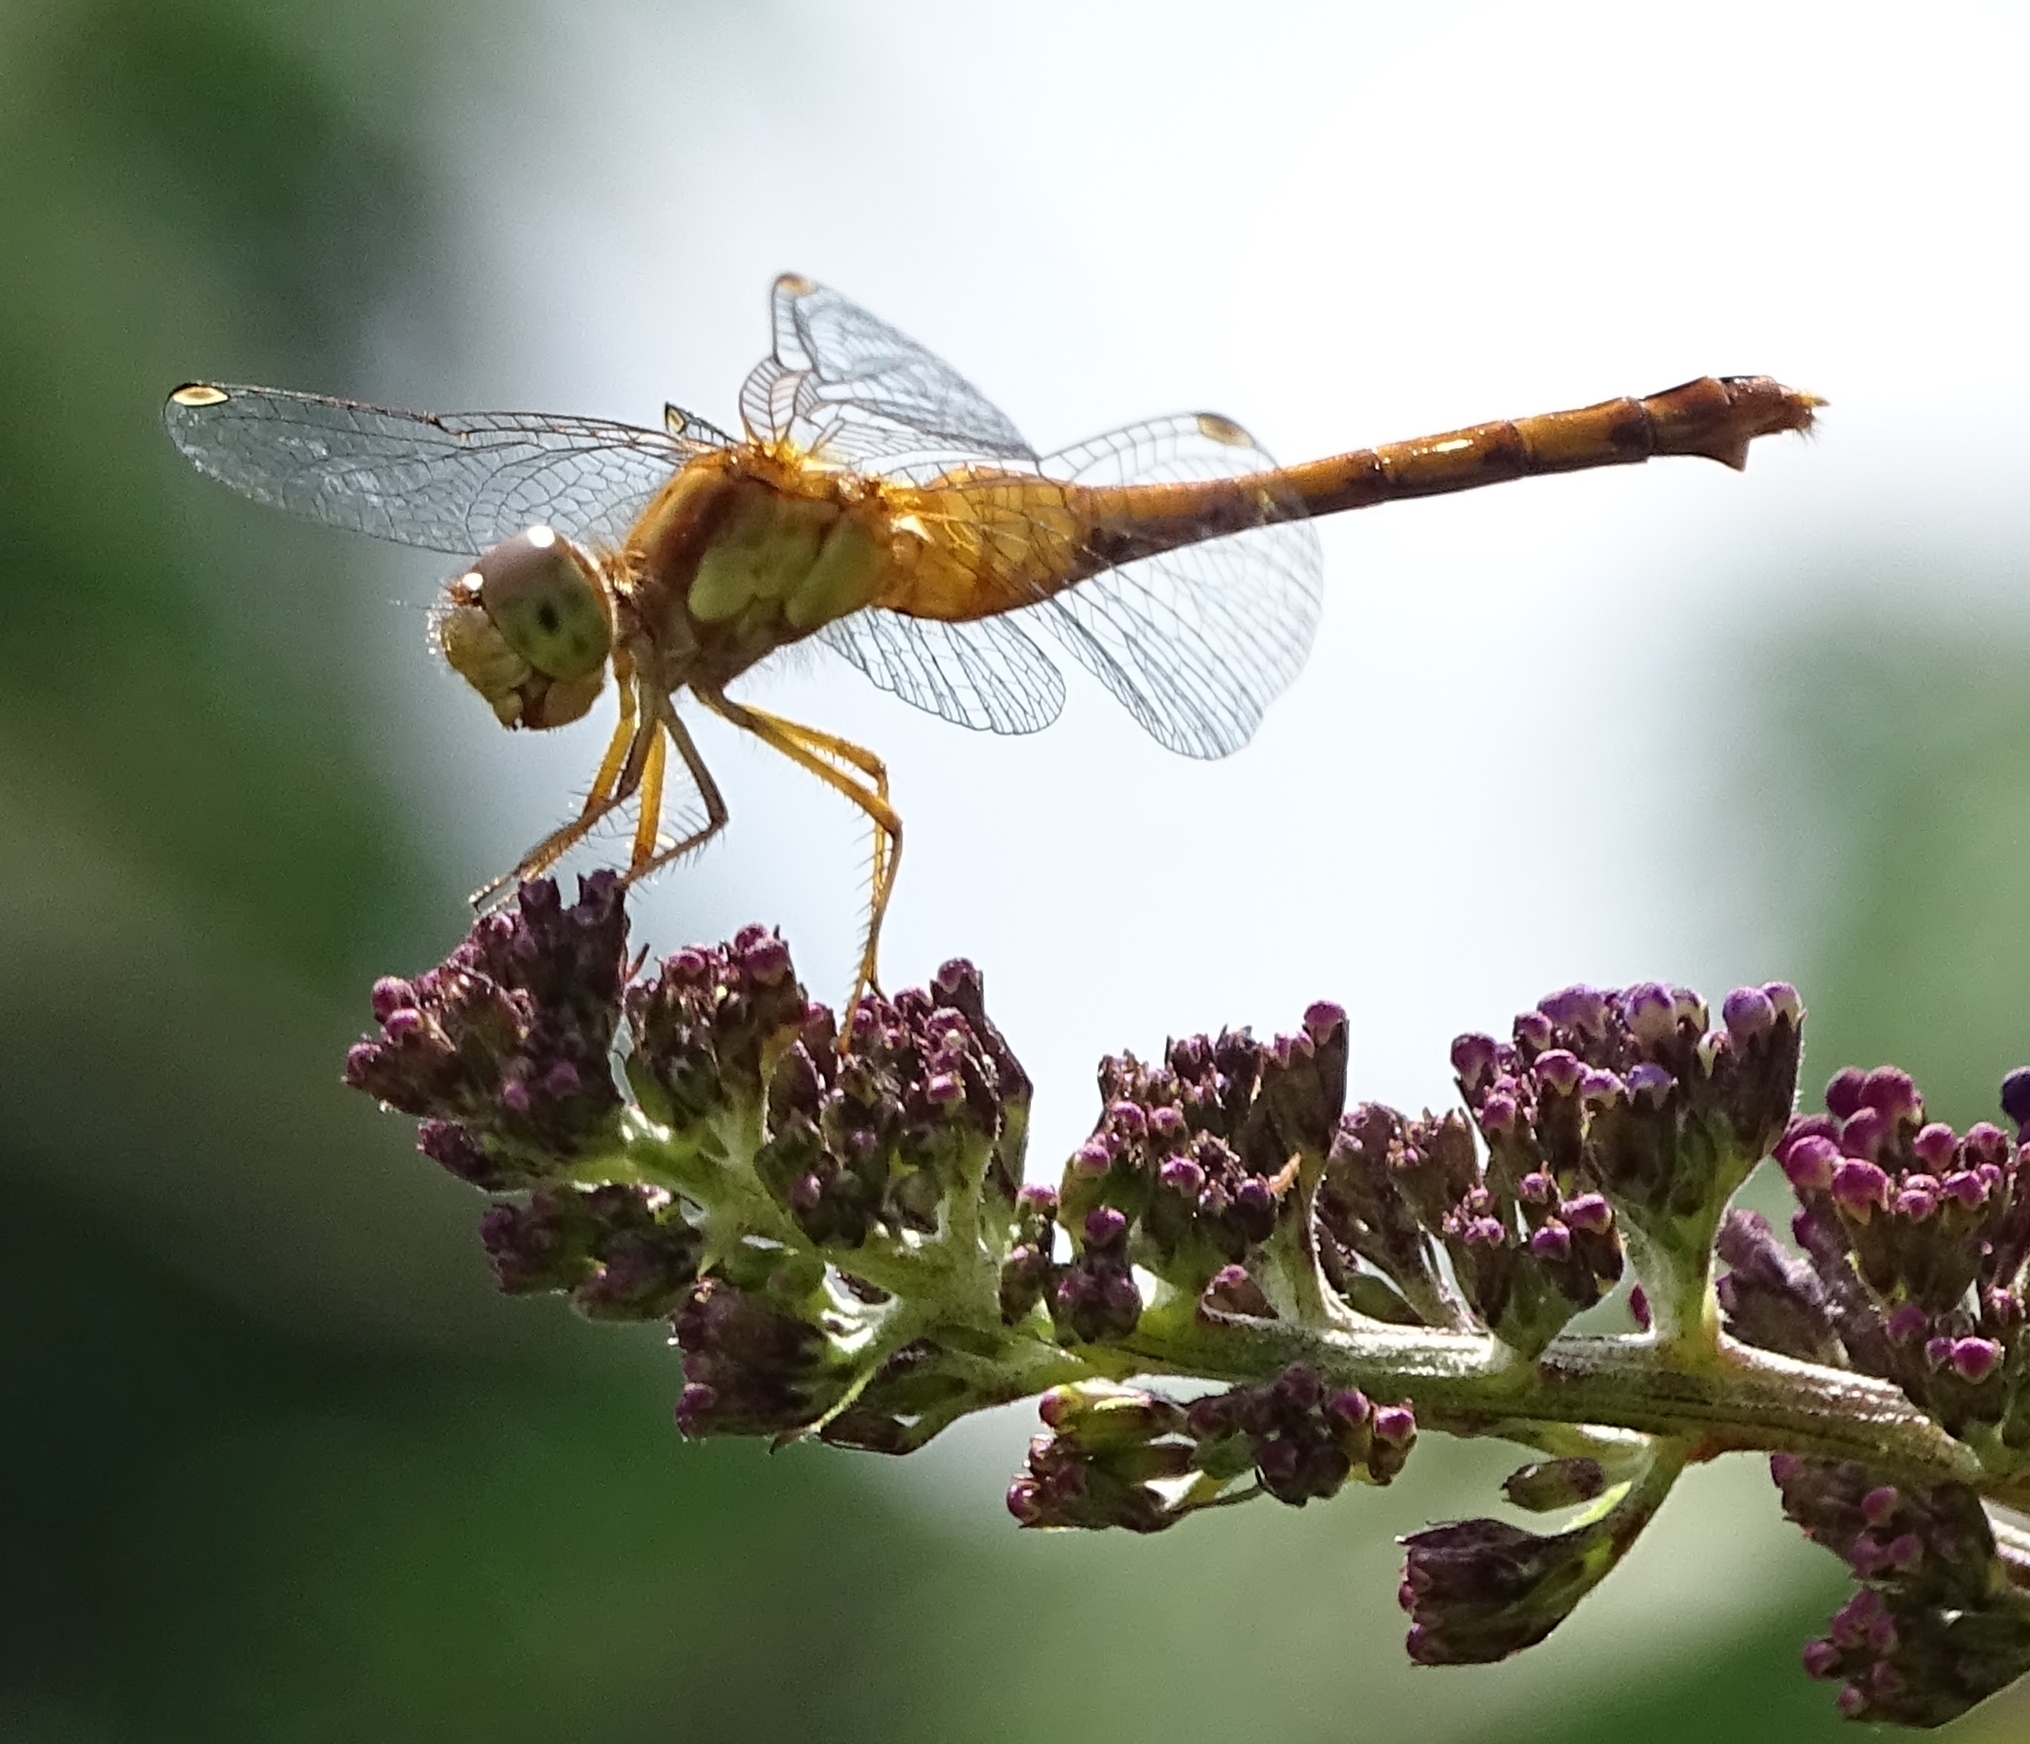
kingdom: Animalia
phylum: Arthropoda
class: Insecta
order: Odonata
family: Libellulidae
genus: Sympetrum
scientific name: Sympetrum vicinum
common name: Autumn meadowhawk
